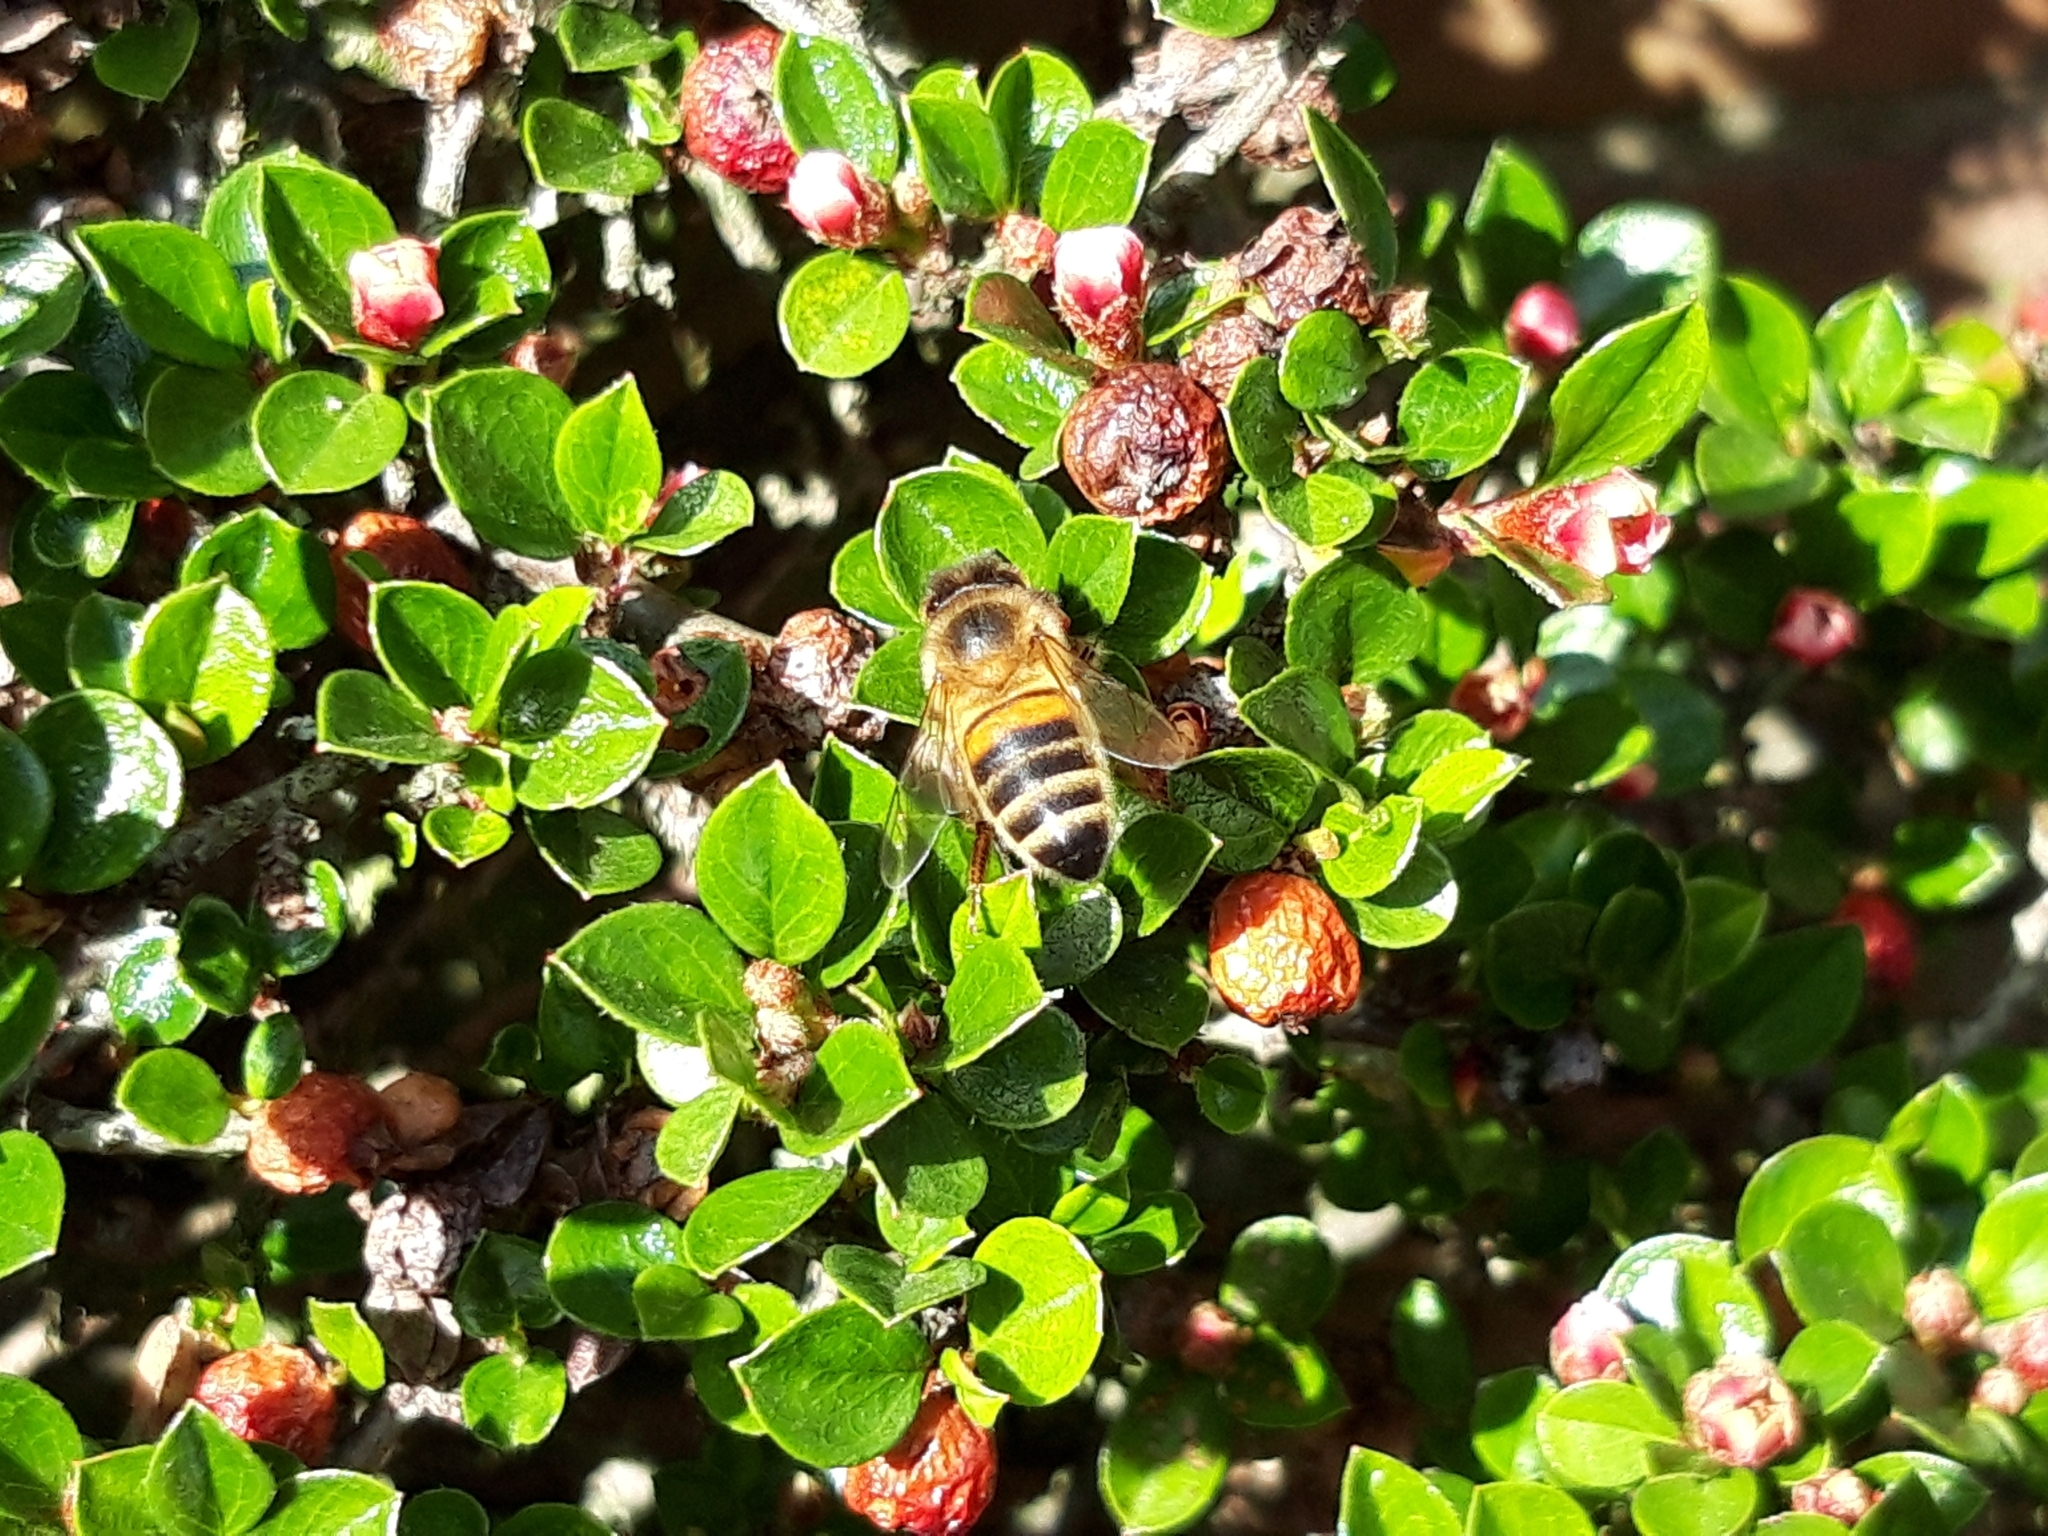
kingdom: Animalia
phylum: Arthropoda
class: Insecta
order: Hymenoptera
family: Apidae
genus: Apis
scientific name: Apis mellifera
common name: Honey bee
